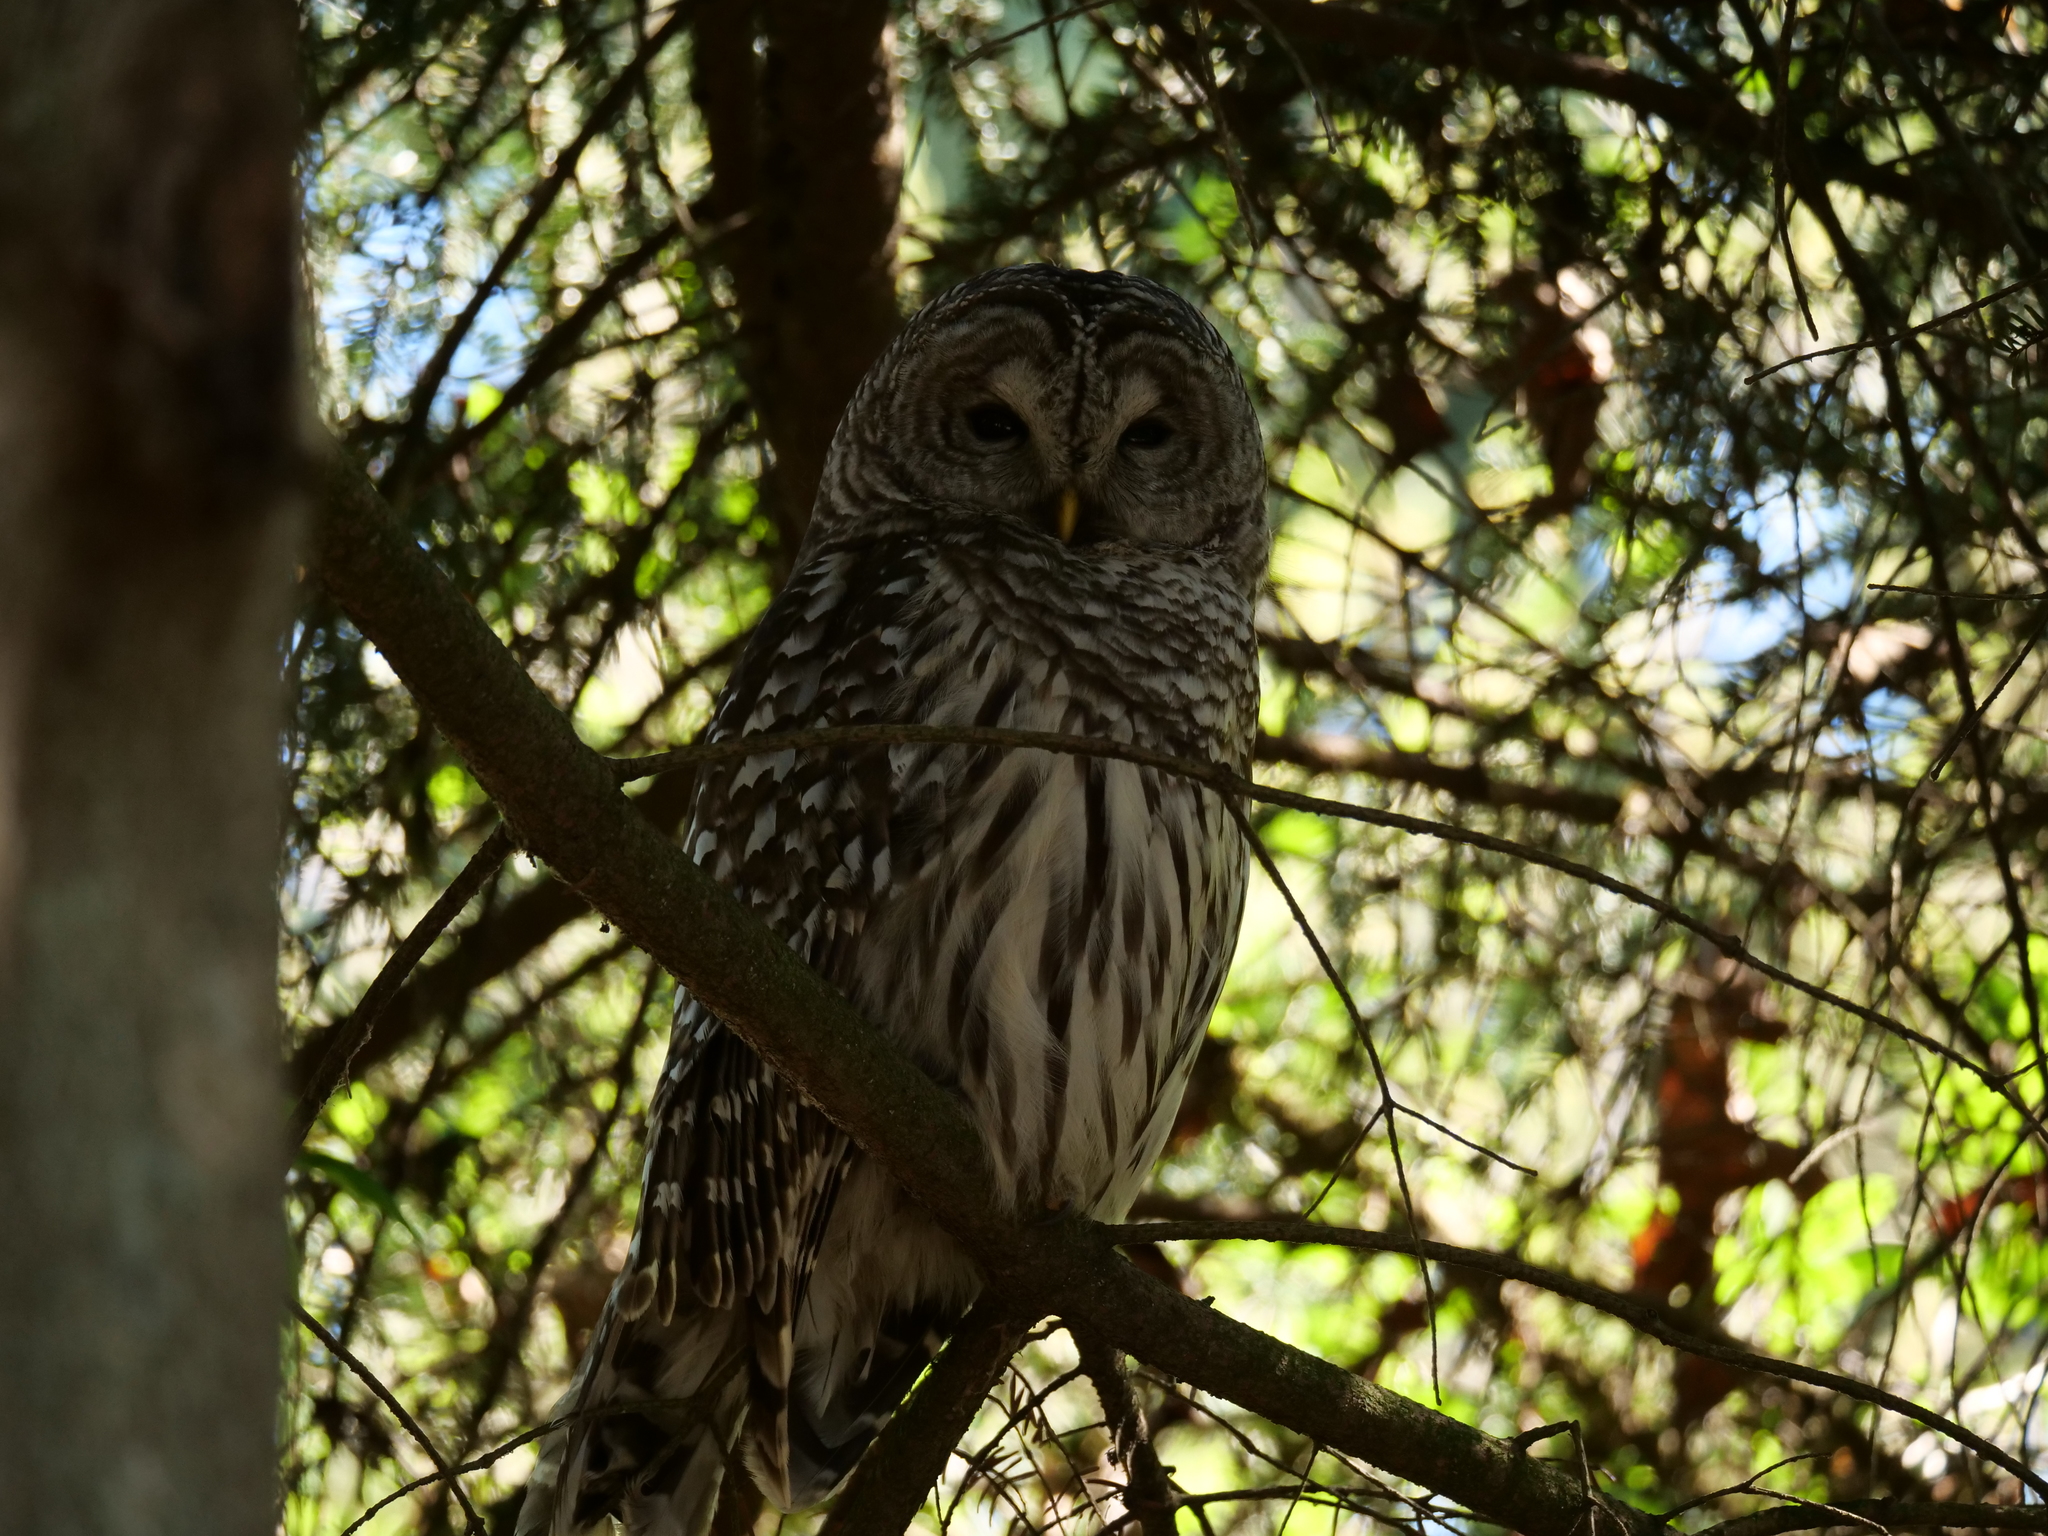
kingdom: Animalia
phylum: Chordata
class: Aves
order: Strigiformes
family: Strigidae
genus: Strix
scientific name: Strix varia
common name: Barred owl
